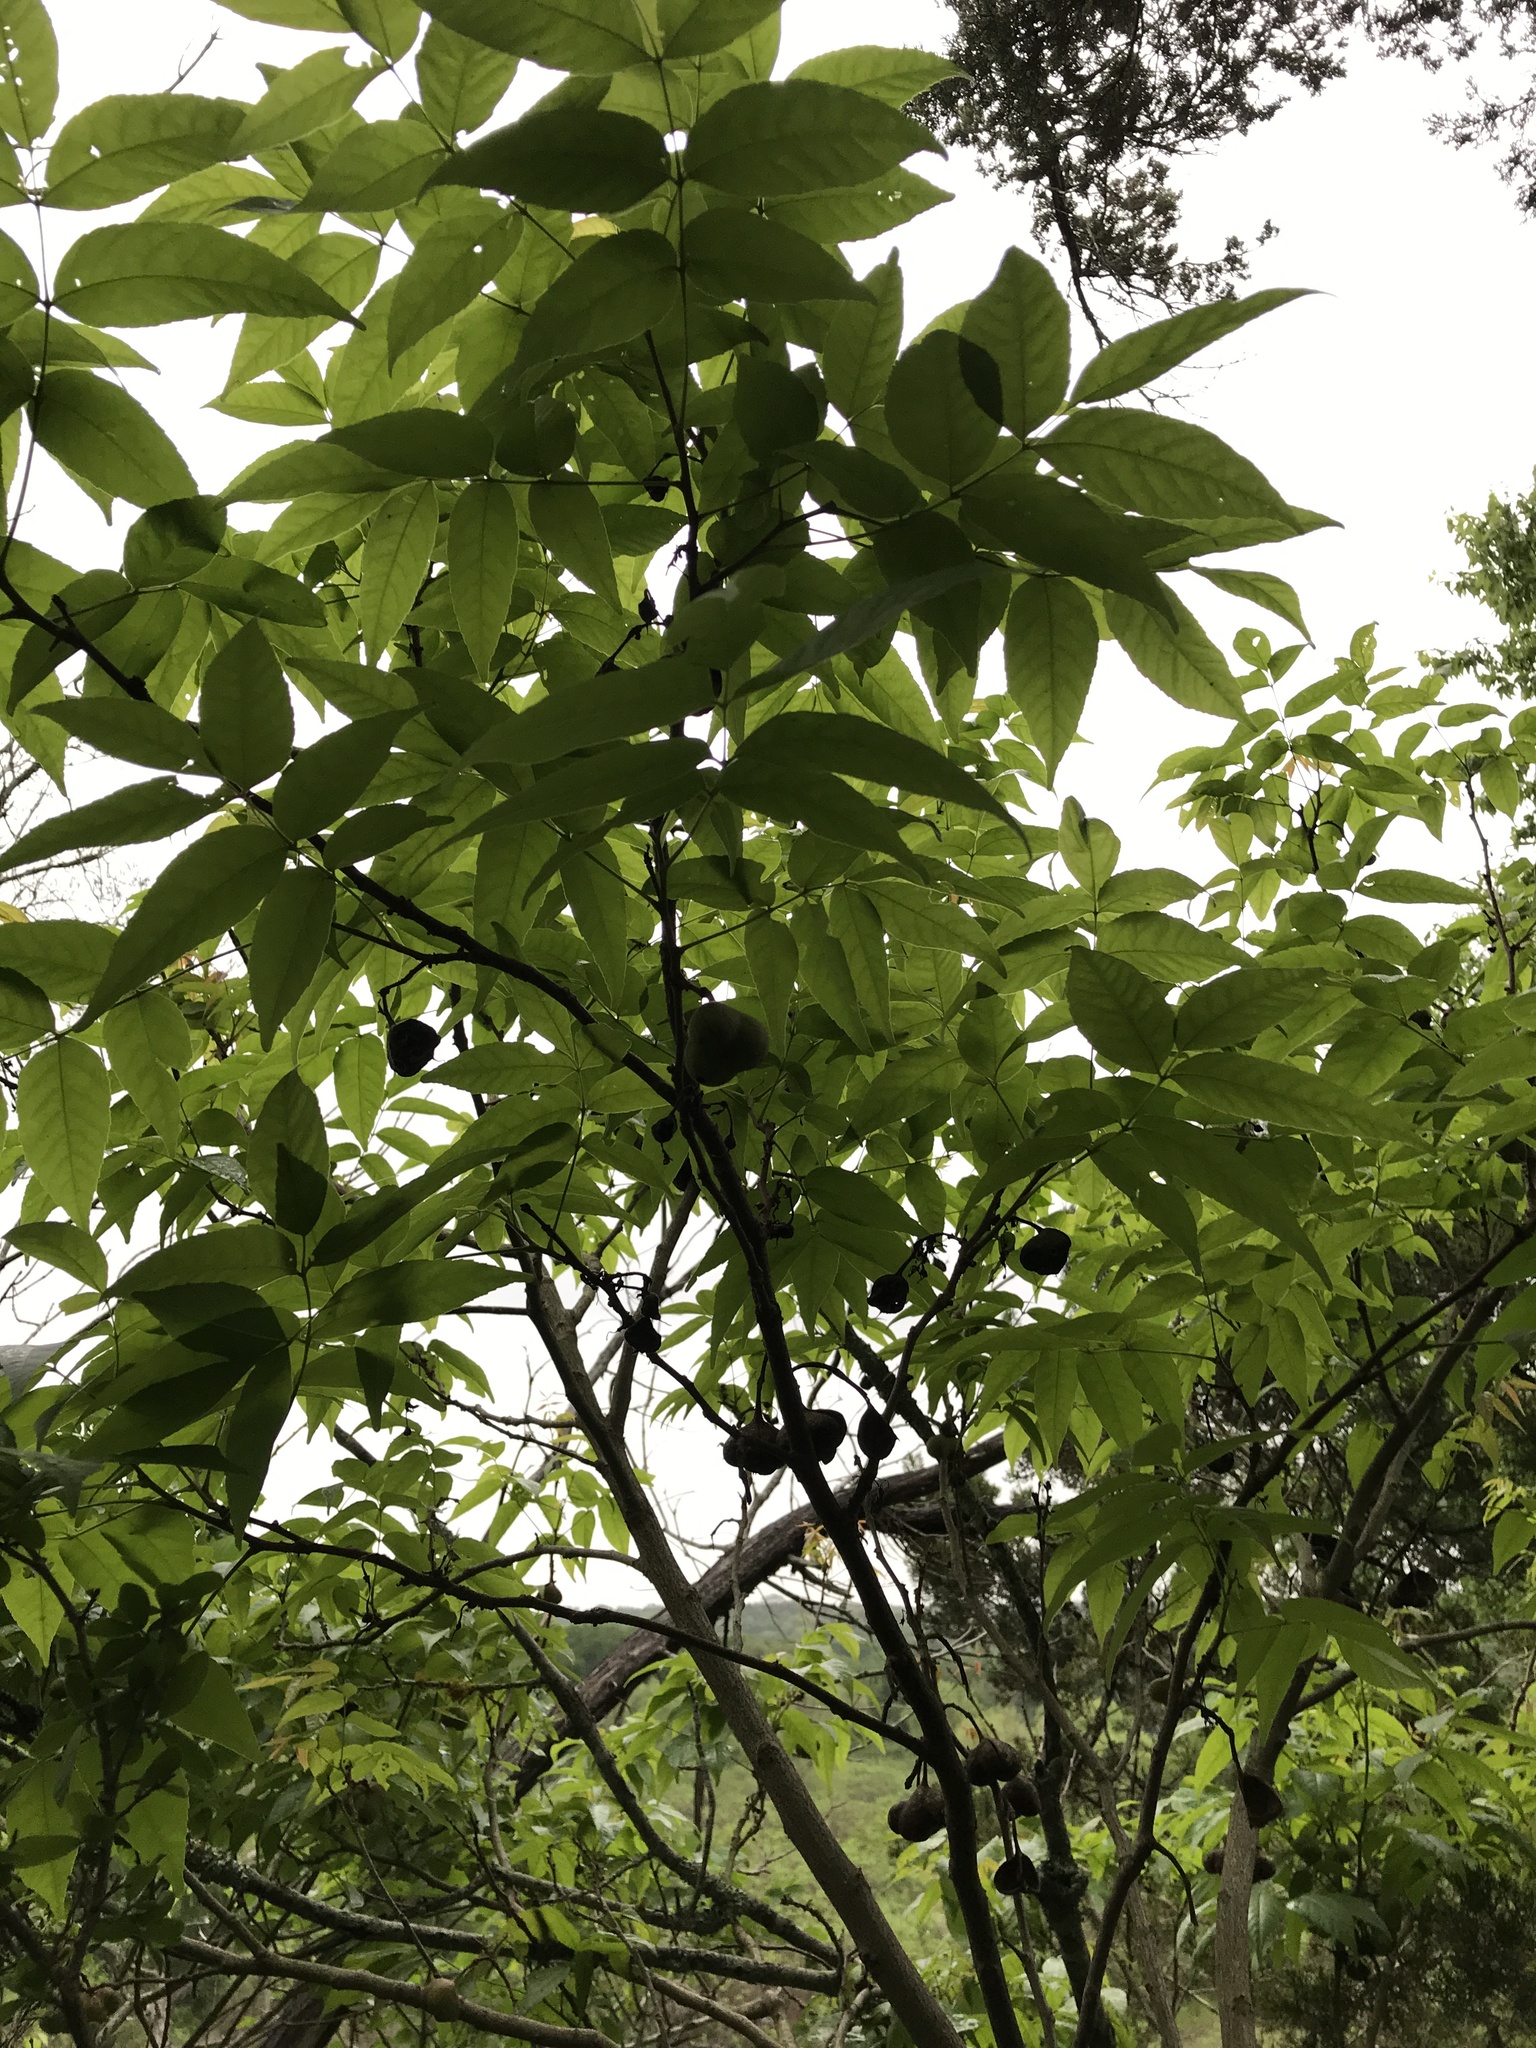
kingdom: Plantae
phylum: Tracheophyta
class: Magnoliopsida
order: Sapindales
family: Sapindaceae
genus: Ungnadia
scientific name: Ungnadia speciosa
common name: Texas-buckeye
